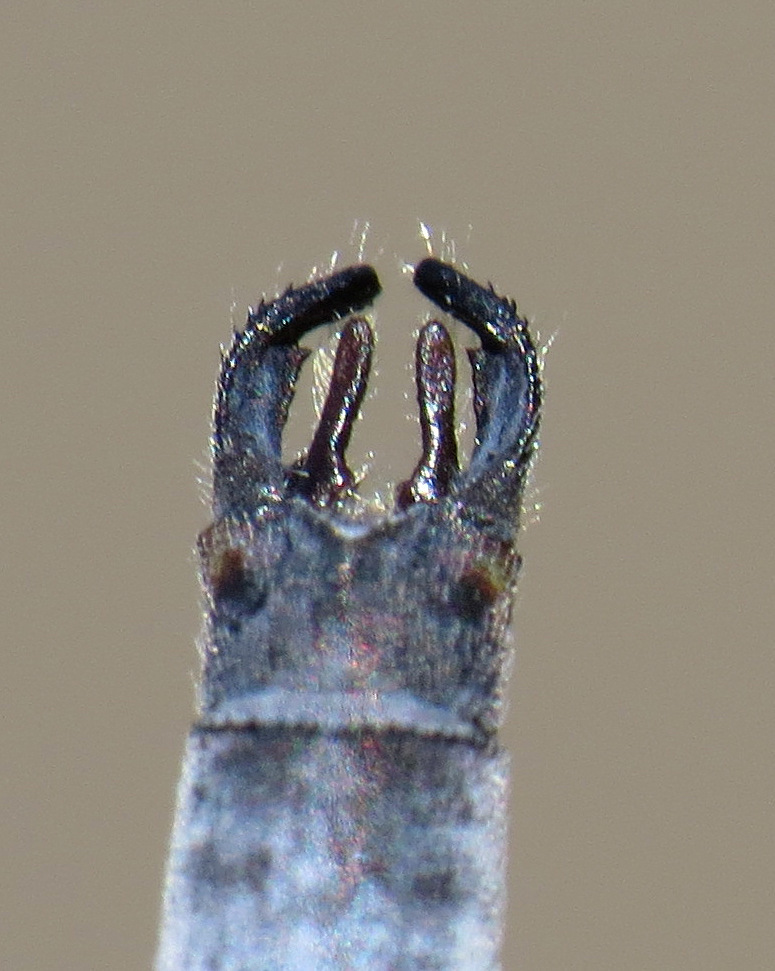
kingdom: Animalia
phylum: Arthropoda
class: Insecta
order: Odonata
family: Lestidae
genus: Lestes
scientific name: Lestes forcipatus
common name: Sweetflag spreadwing
